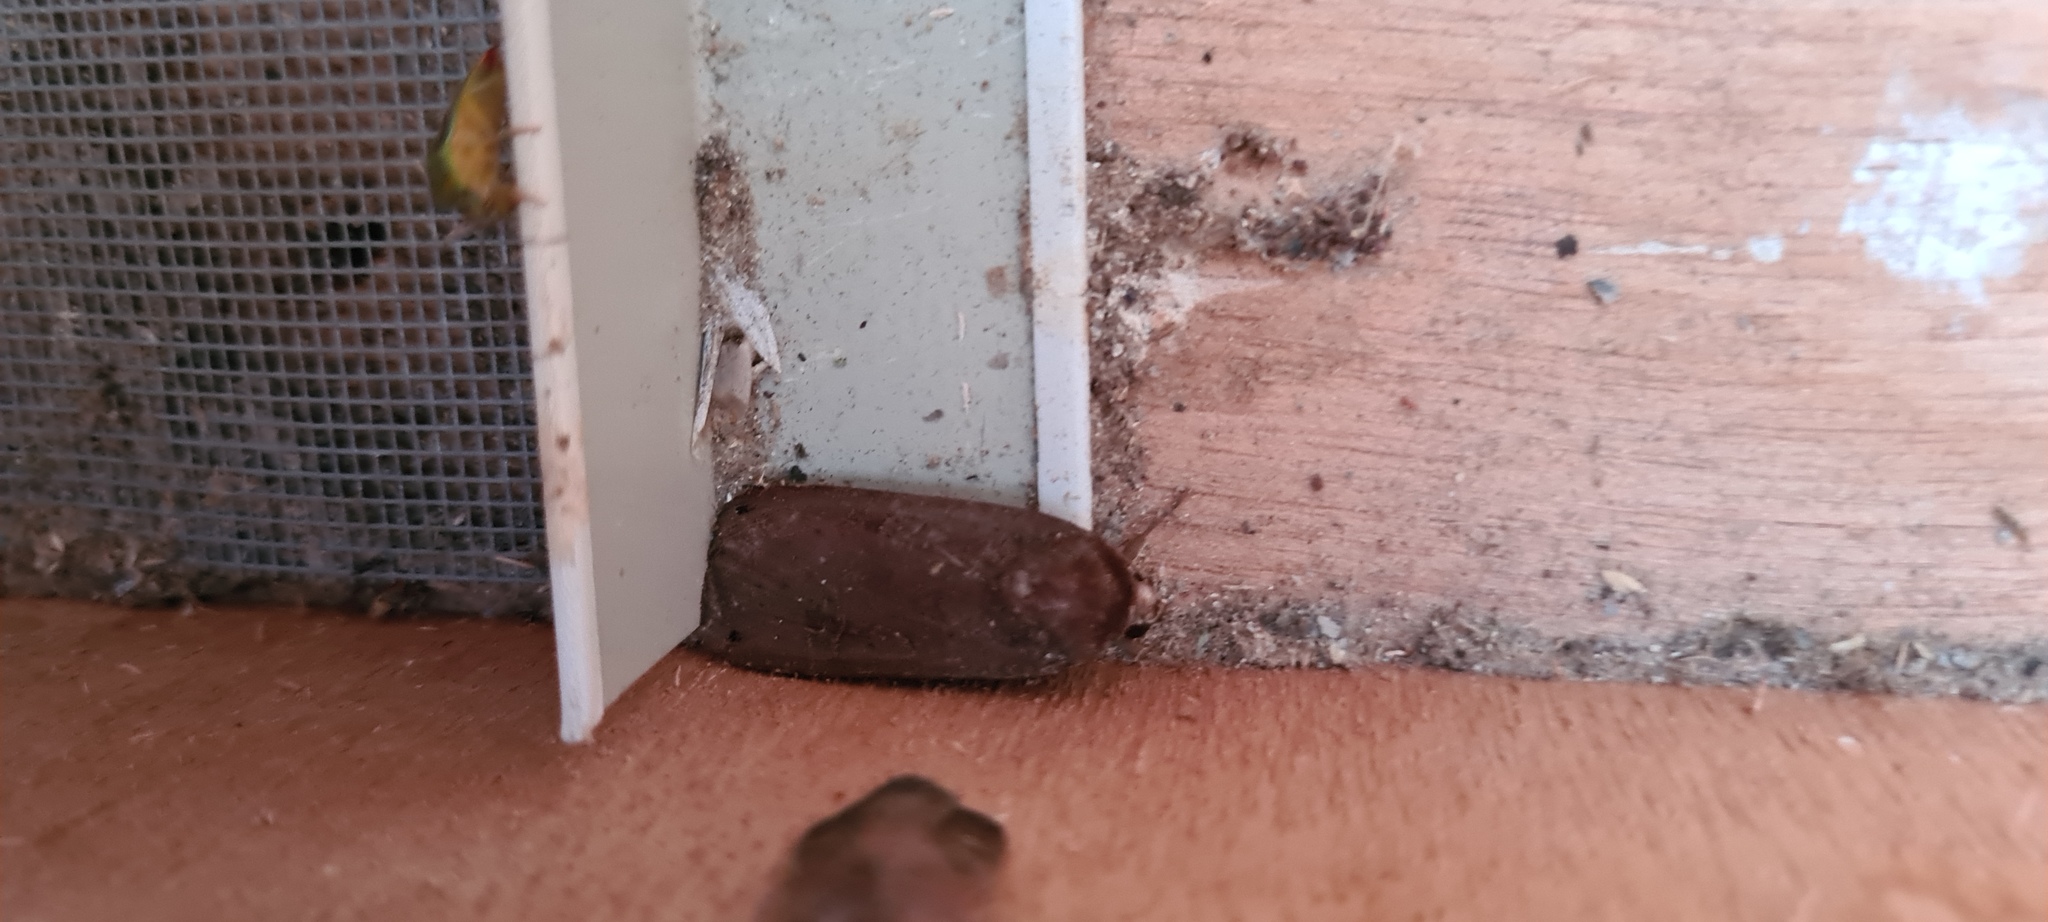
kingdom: Animalia
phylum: Arthropoda
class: Insecta
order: Lepidoptera
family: Noctuidae
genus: Noctua
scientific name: Noctua pronuba
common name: Large yellow underwing
